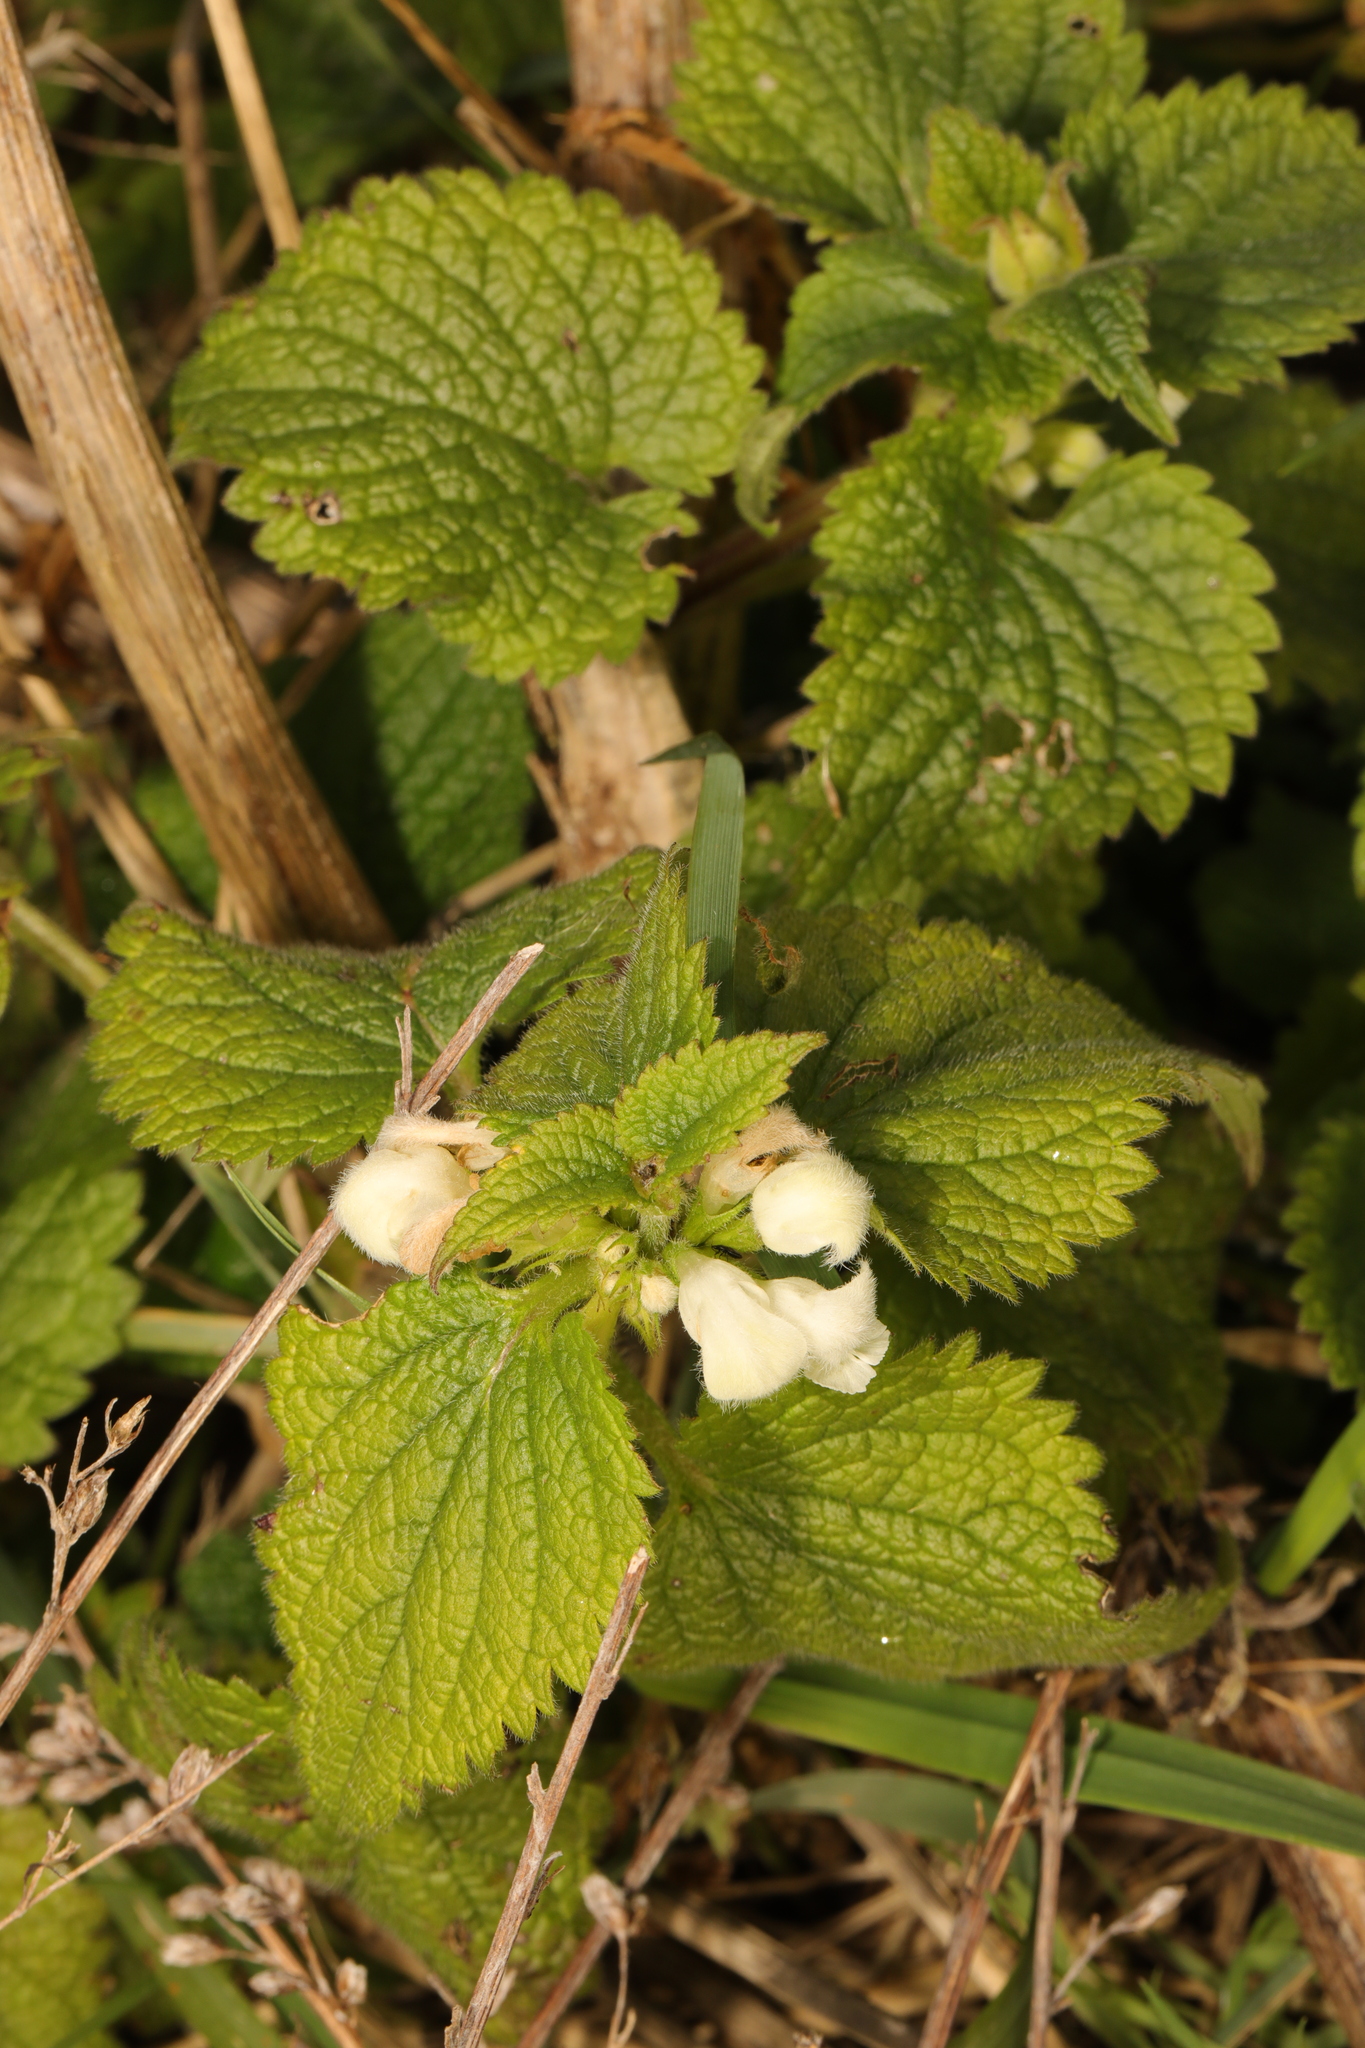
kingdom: Plantae
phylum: Tracheophyta
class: Magnoliopsida
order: Lamiales
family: Lamiaceae
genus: Lamium
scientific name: Lamium album
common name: White dead-nettle
